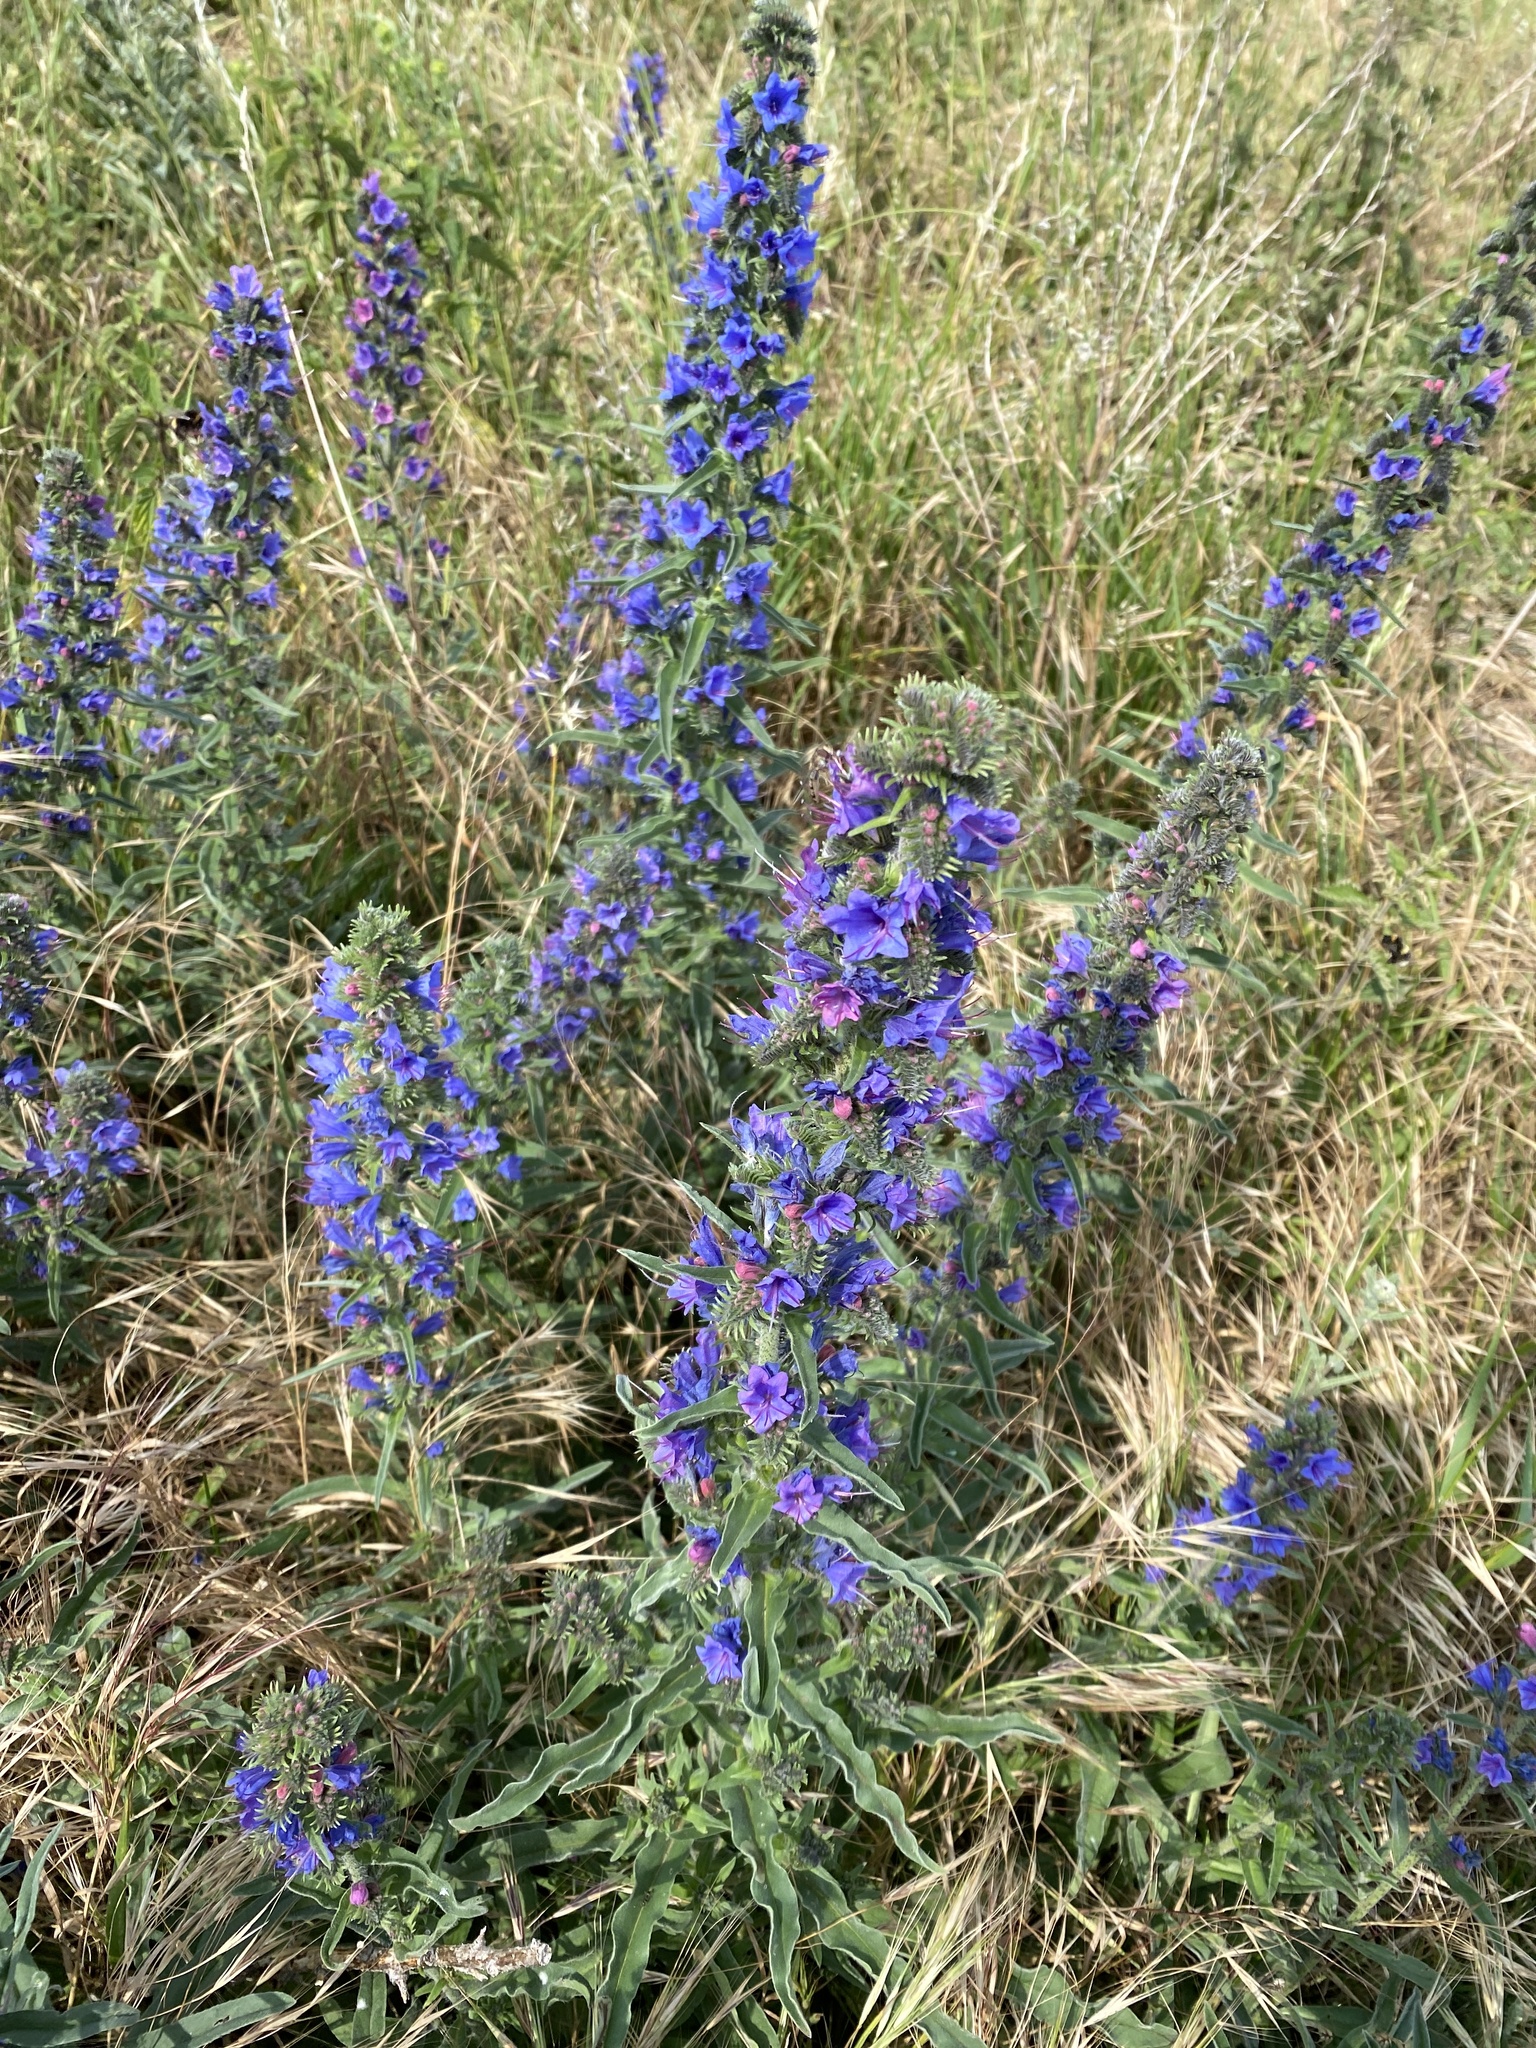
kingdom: Plantae
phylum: Tracheophyta
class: Magnoliopsida
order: Boraginales
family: Boraginaceae
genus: Echium
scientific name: Echium vulgare
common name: Common viper's bugloss
